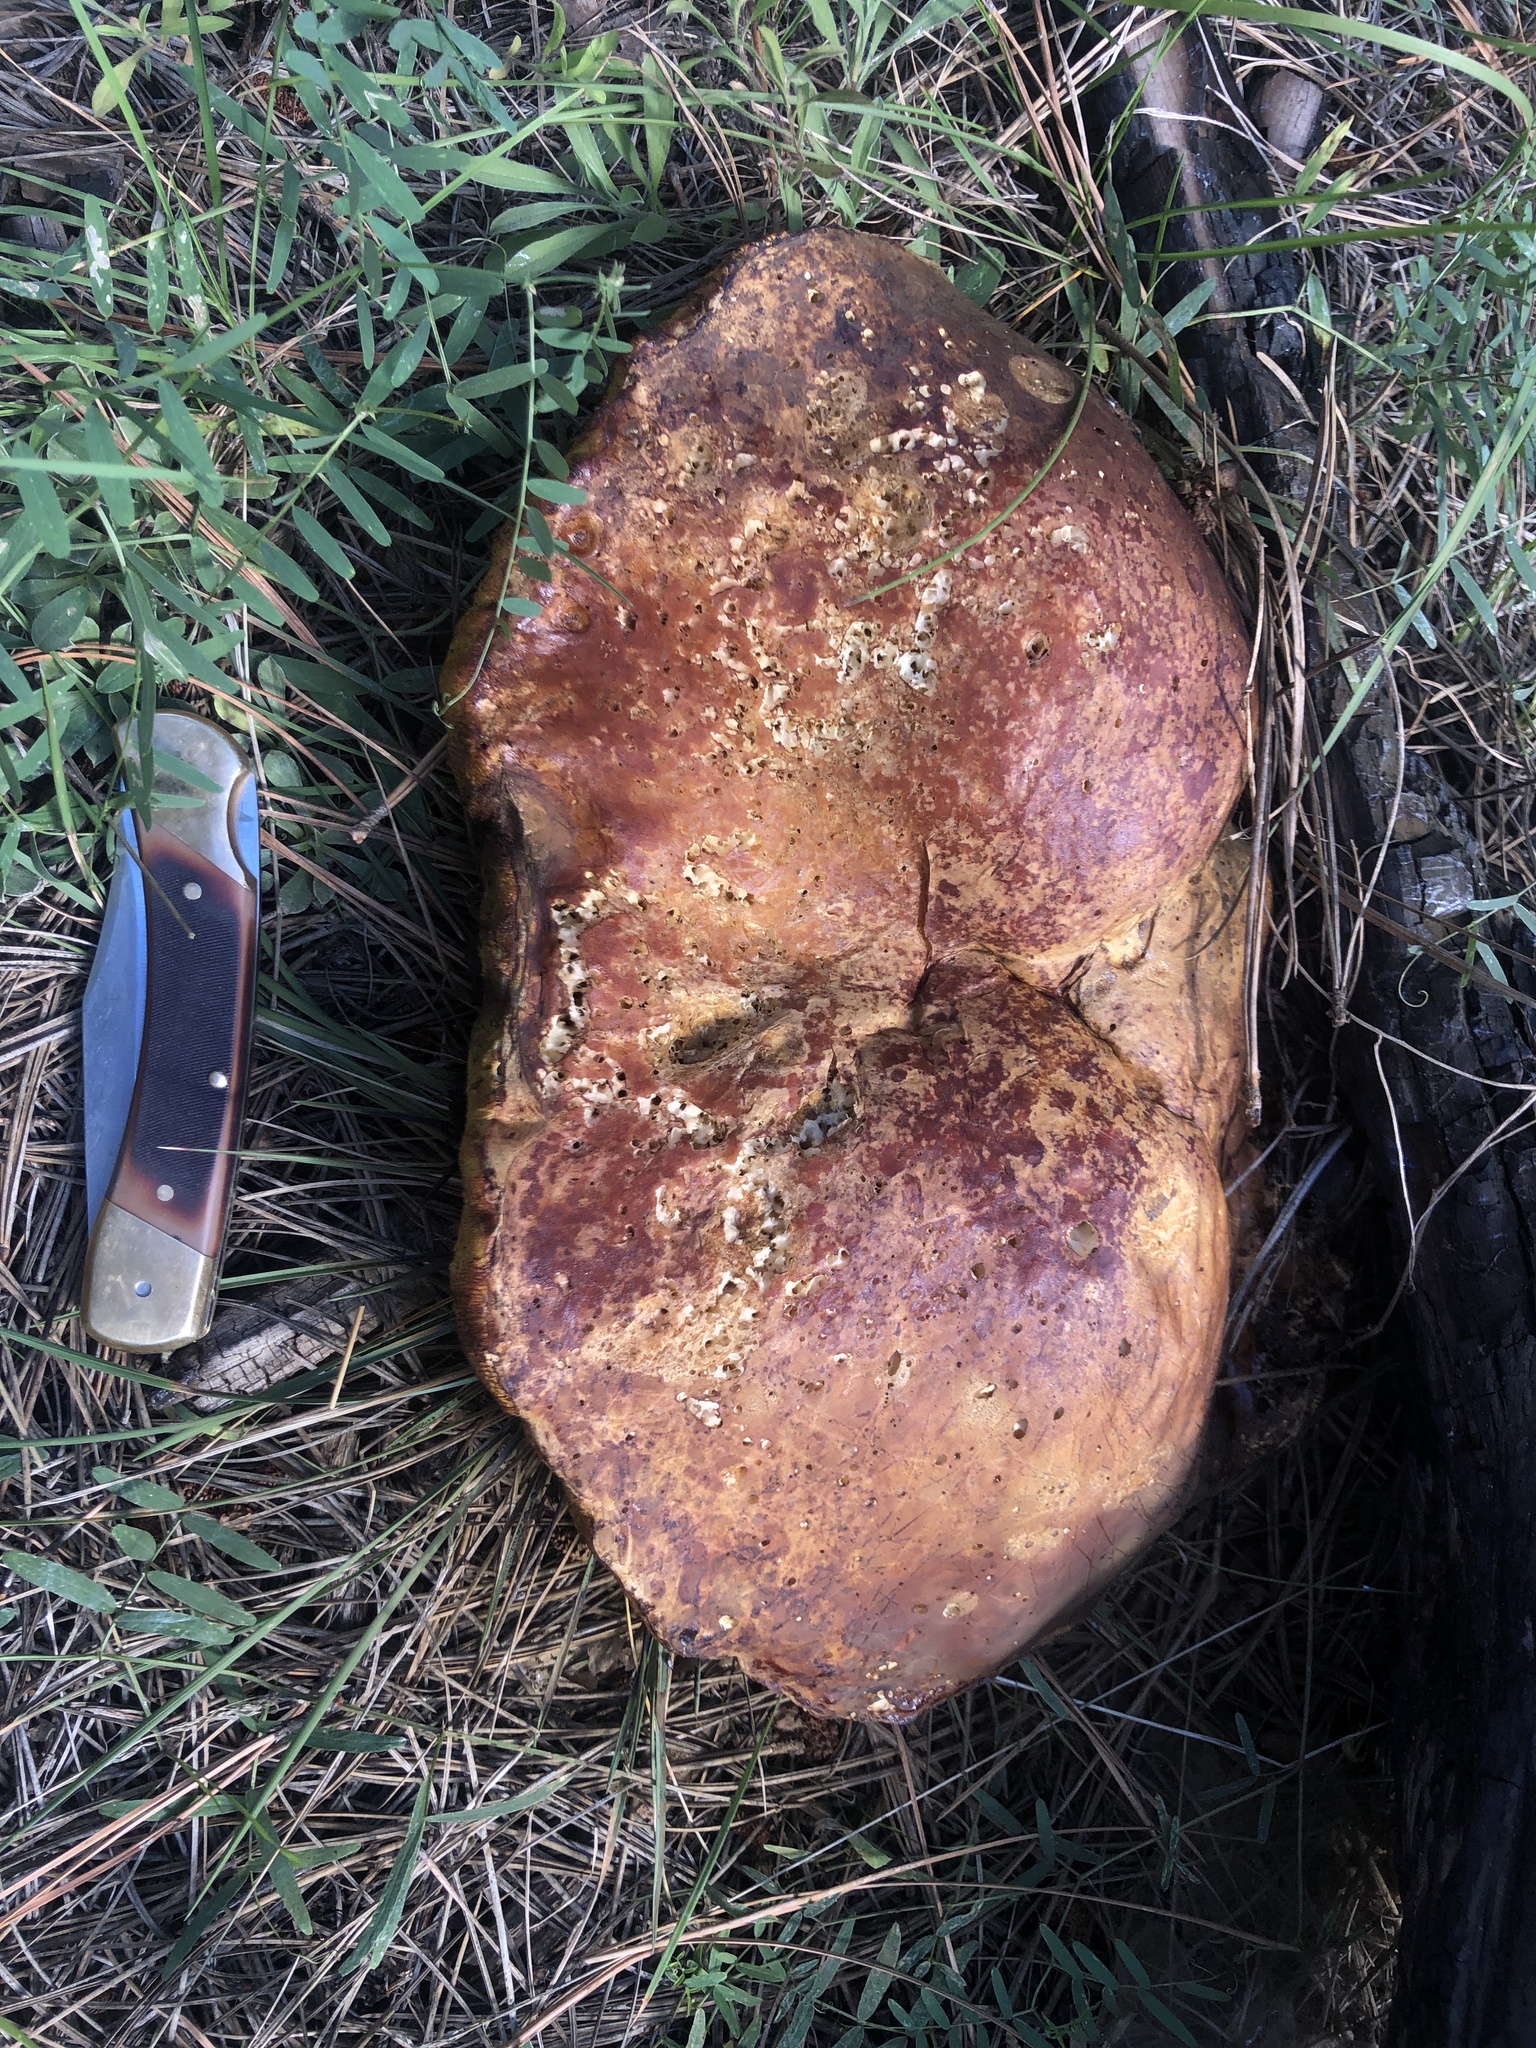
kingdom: Fungi
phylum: Basidiomycota
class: Agaricomycetes
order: Boletales
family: Boletaceae
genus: Boletus
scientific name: Boletus rubriceps
